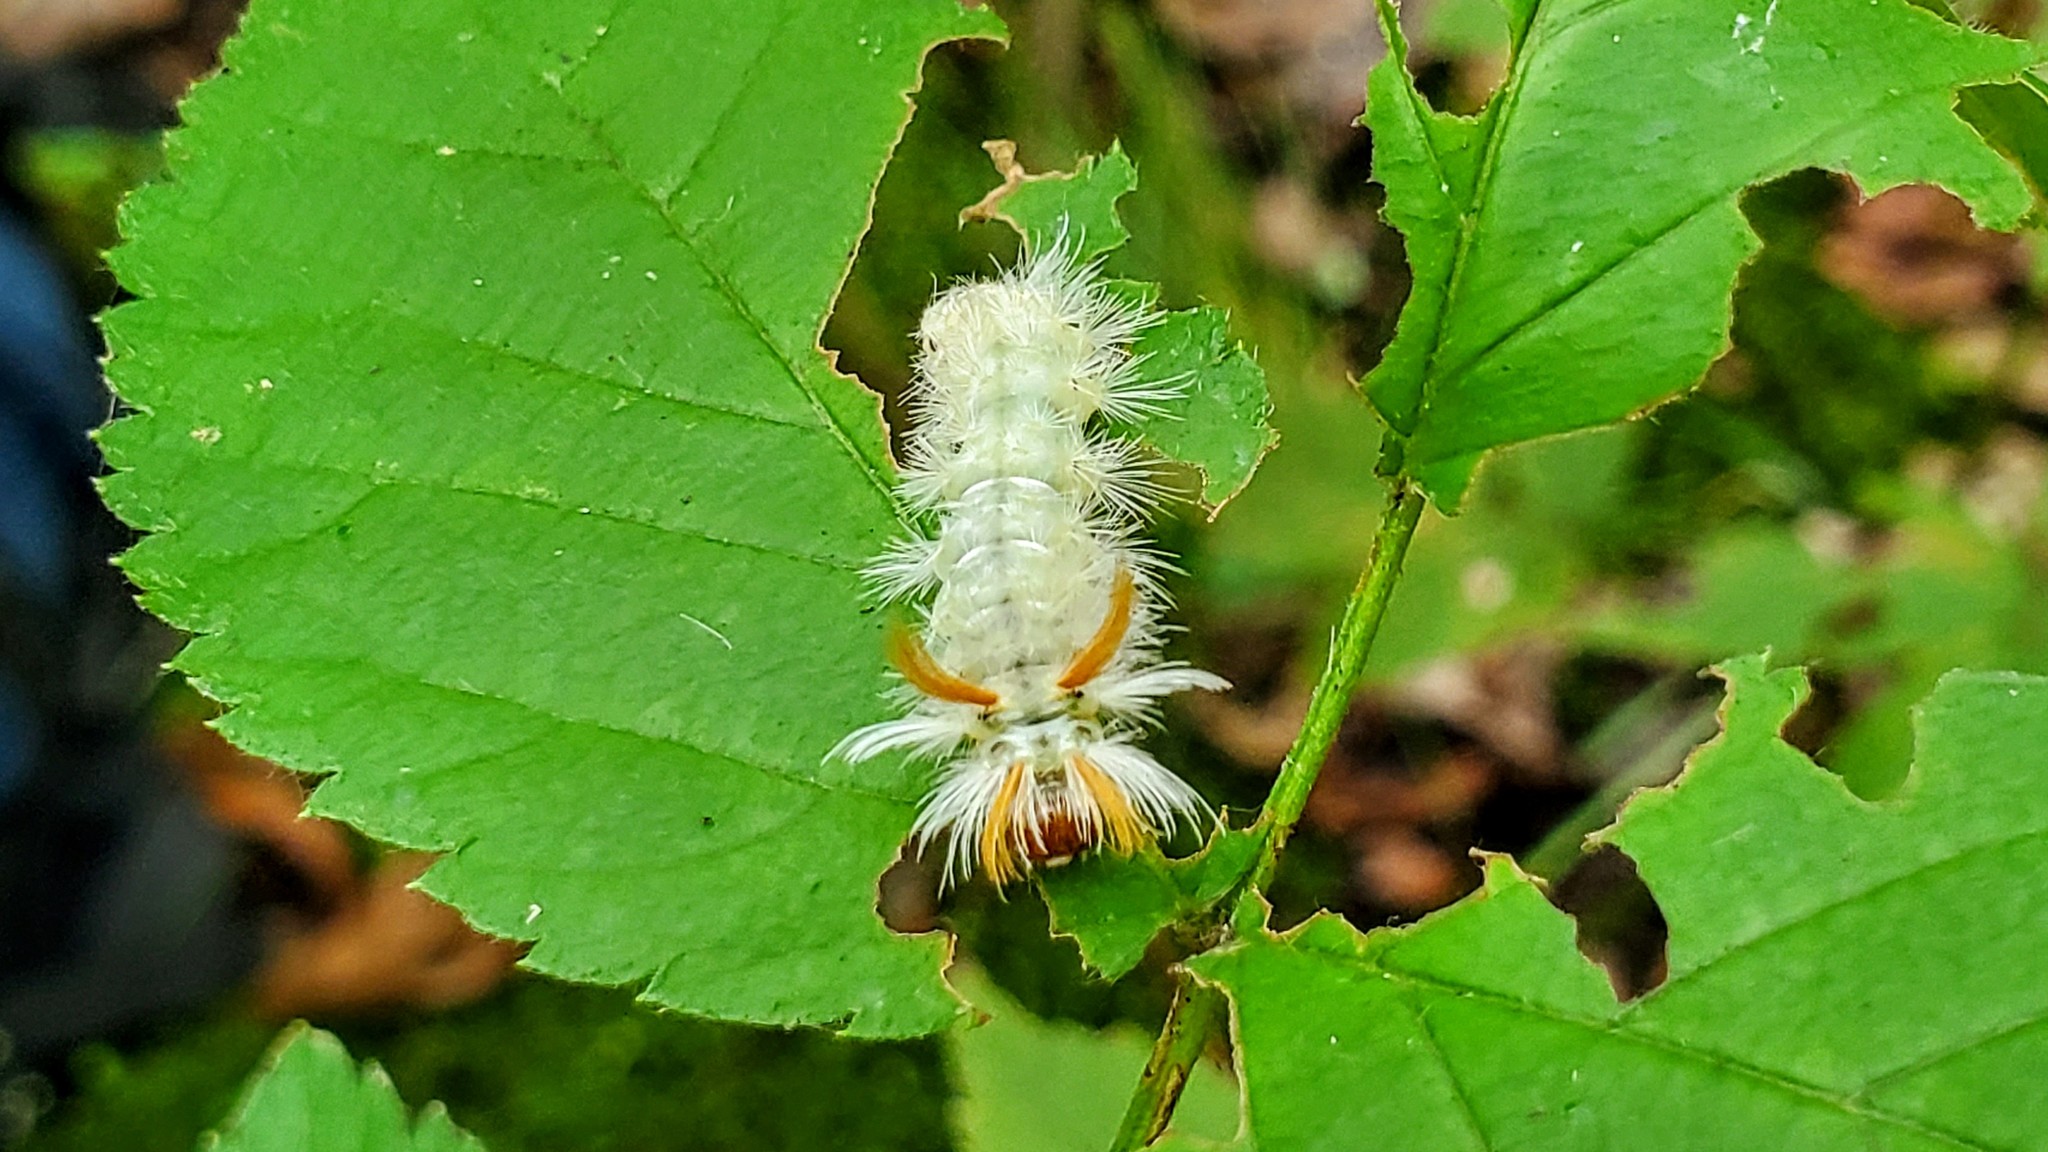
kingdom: Animalia
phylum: Arthropoda
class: Insecta
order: Lepidoptera
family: Erebidae
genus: Halysidota
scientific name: Halysidota harrisii
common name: Sycamore tussock moth
